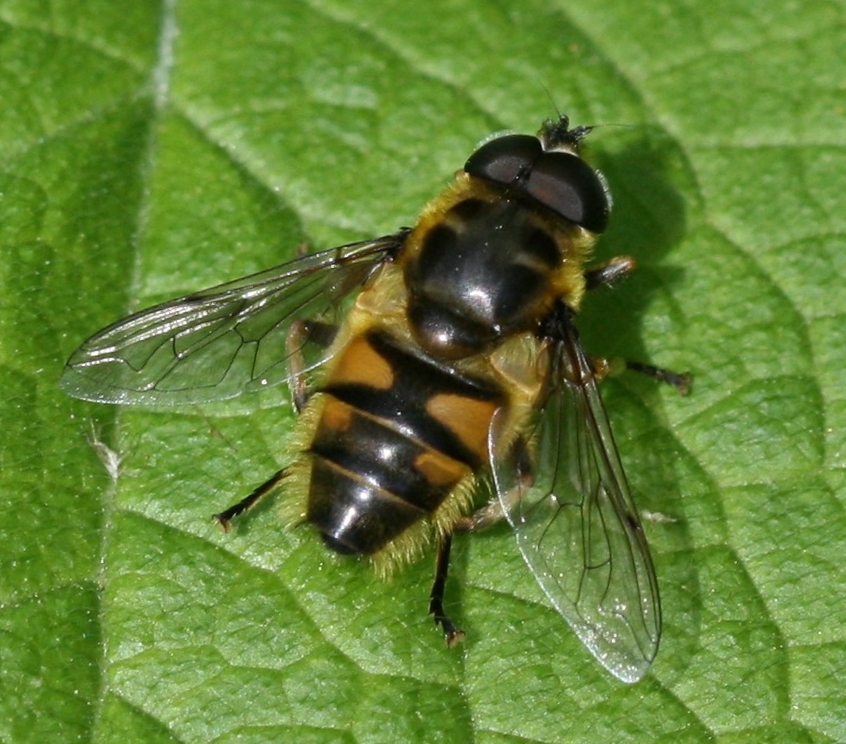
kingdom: Animalia
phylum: Arthropoda
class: Insecta
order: Diptera
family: Syrphidae
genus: Myathropa
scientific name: Myathropa florea
